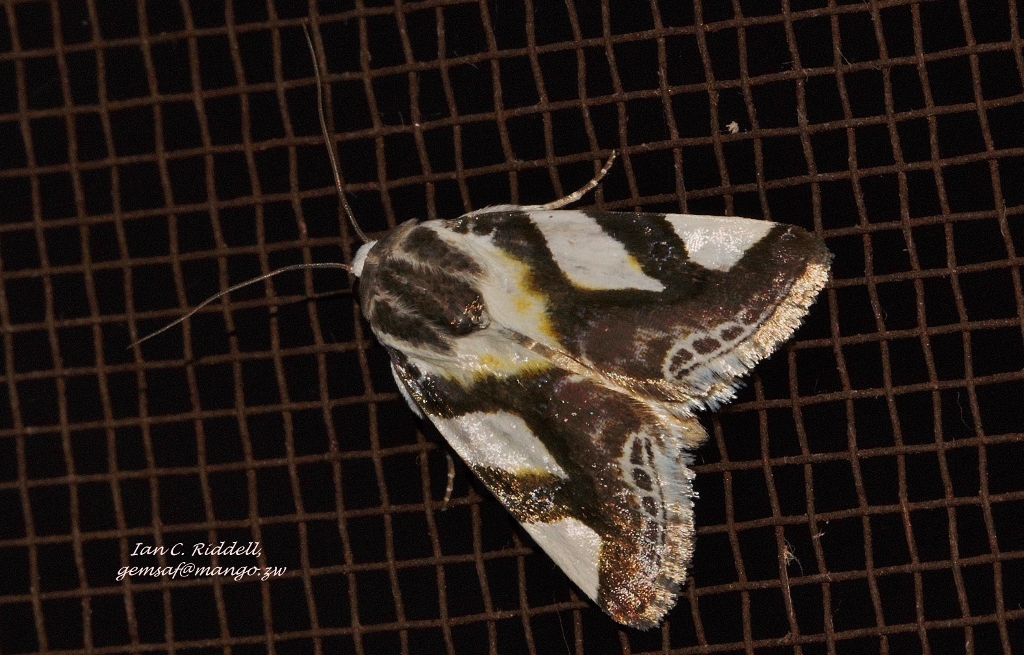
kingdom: Animalia
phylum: Arthropoda
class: Insecta
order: Lepidoptera
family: Noctuidae
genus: Acontia
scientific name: Acontia umbrigera
